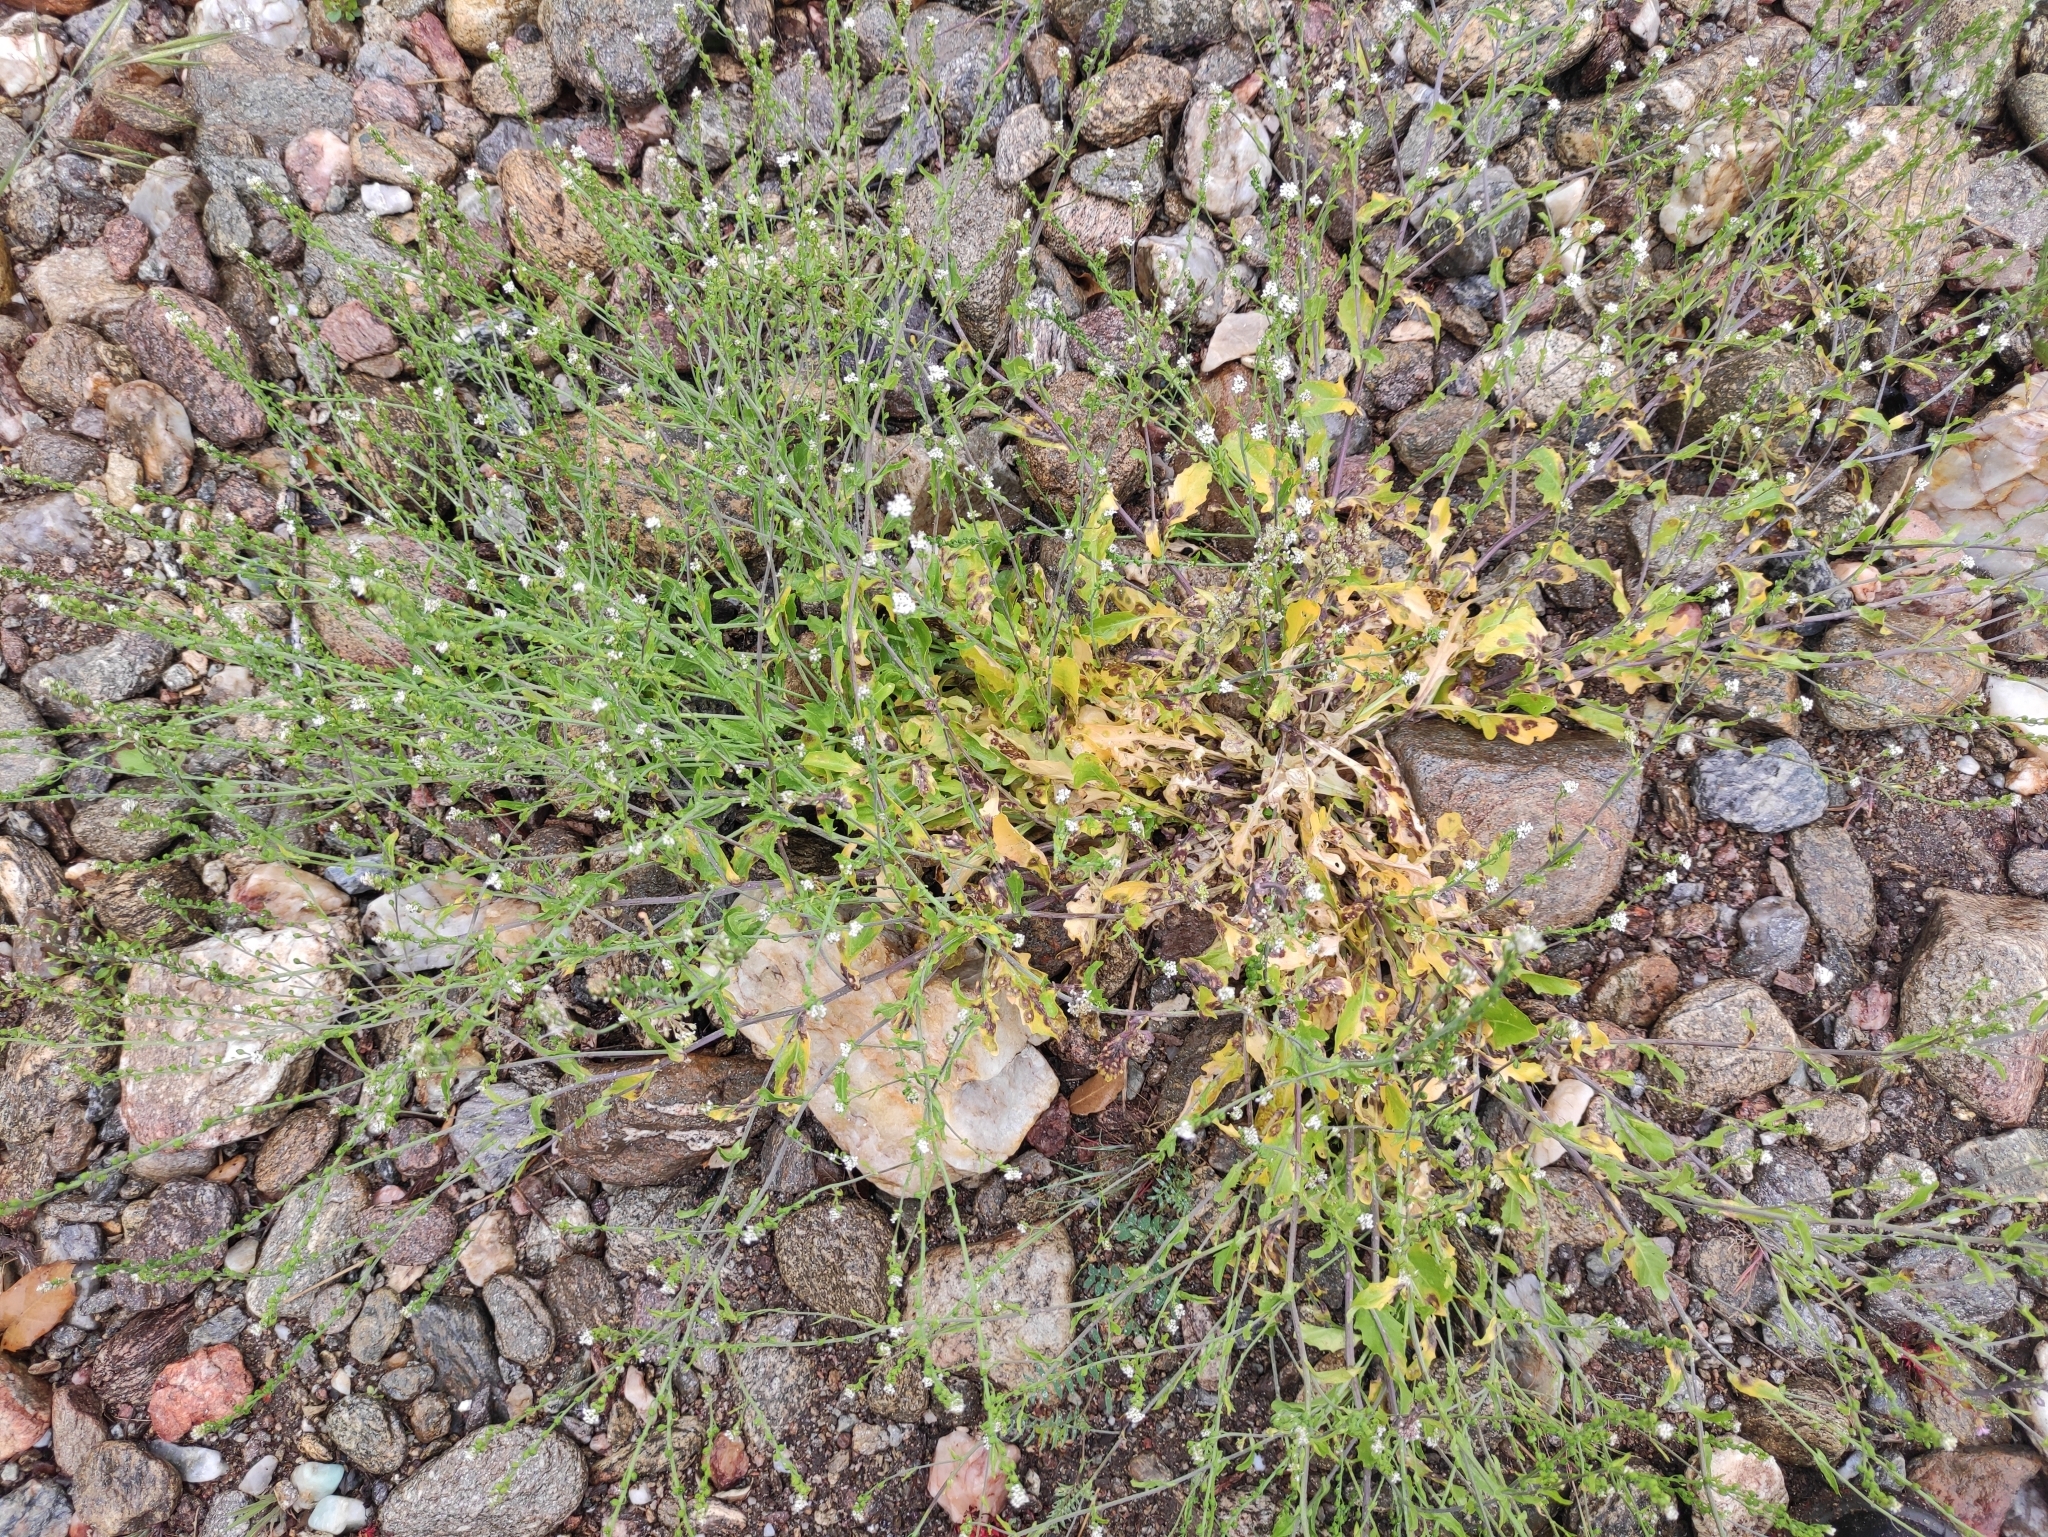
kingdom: Plantae
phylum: Tracheophyta
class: Magnoliopsida
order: Brassicales
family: Brassicaceae
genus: Calepina
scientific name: Calepina irregularis
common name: White ballmustard
